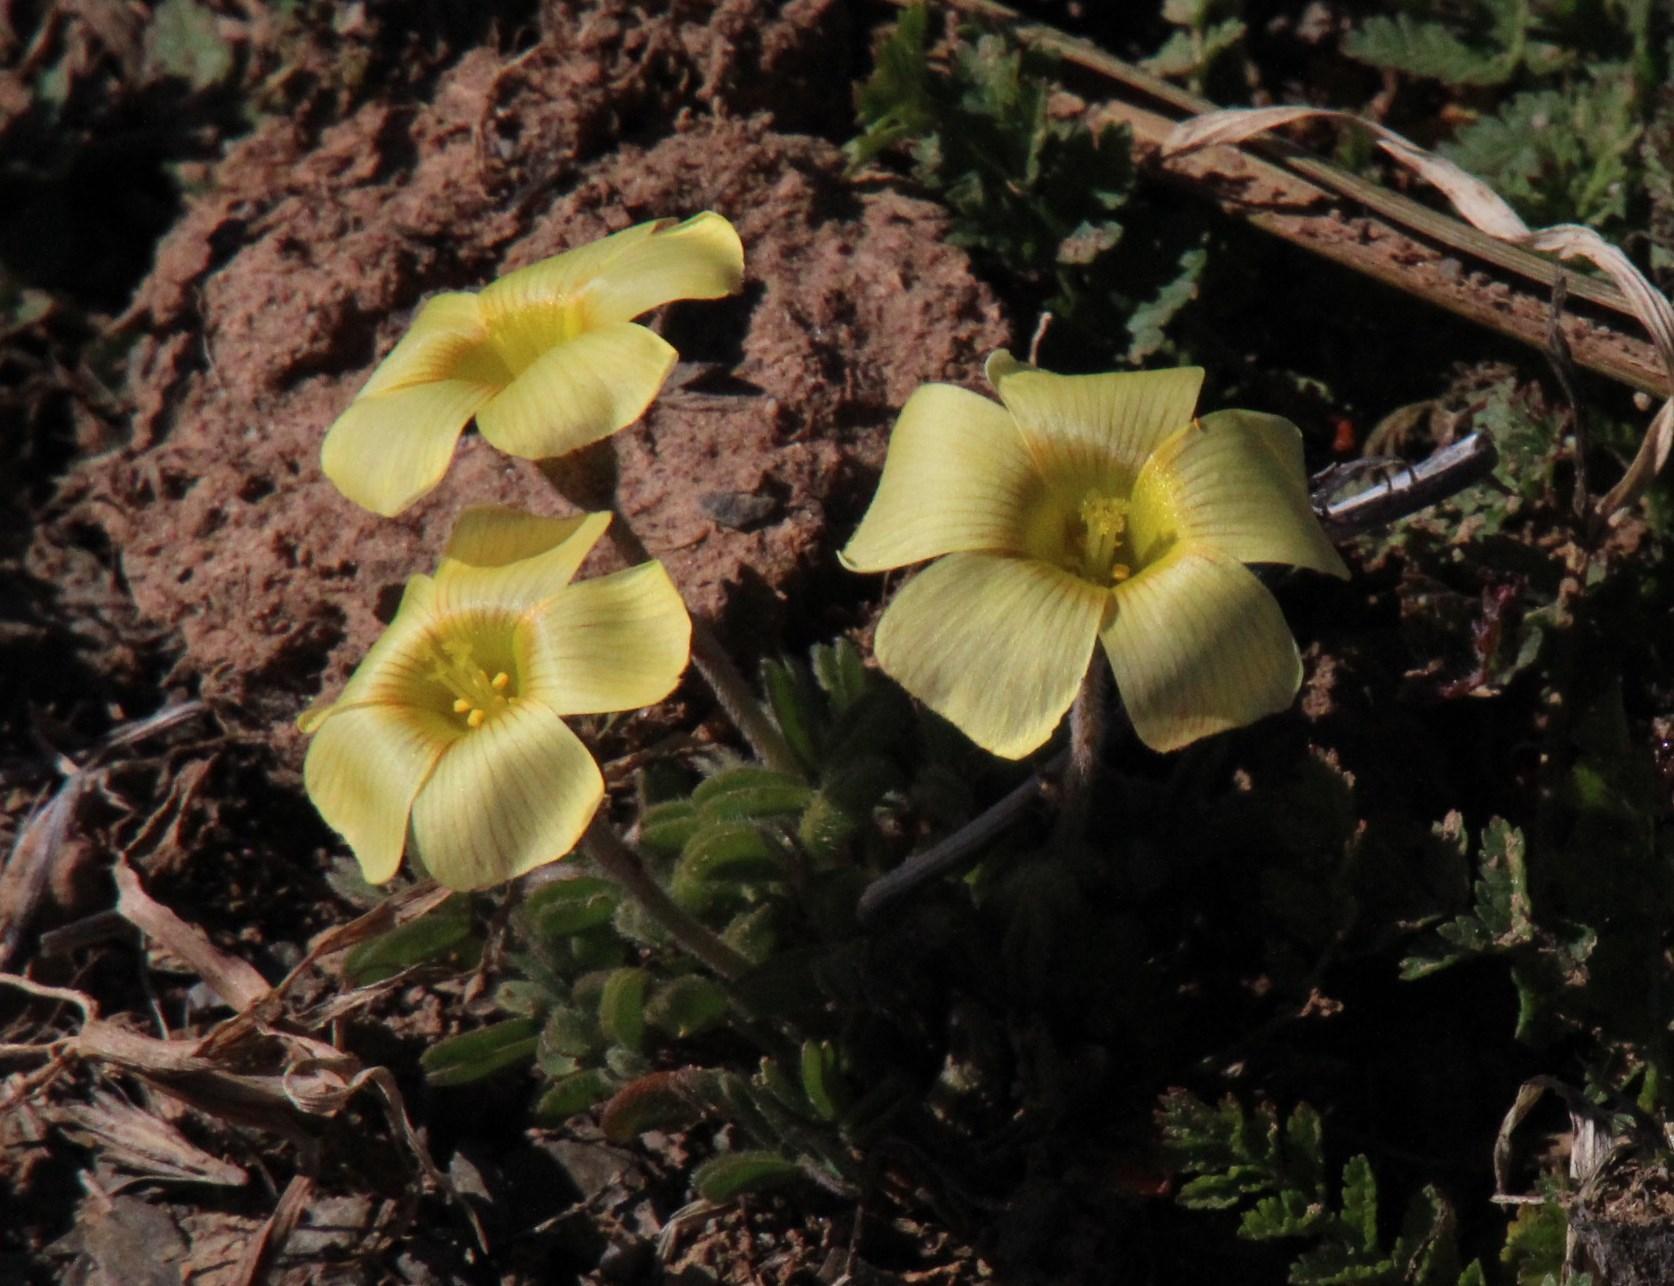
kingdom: Plantae
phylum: Tracheophyta
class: Magnoliopsida
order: Oxalidales
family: Oxalidaceae
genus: Oxalis
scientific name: Oxalis obtusa
